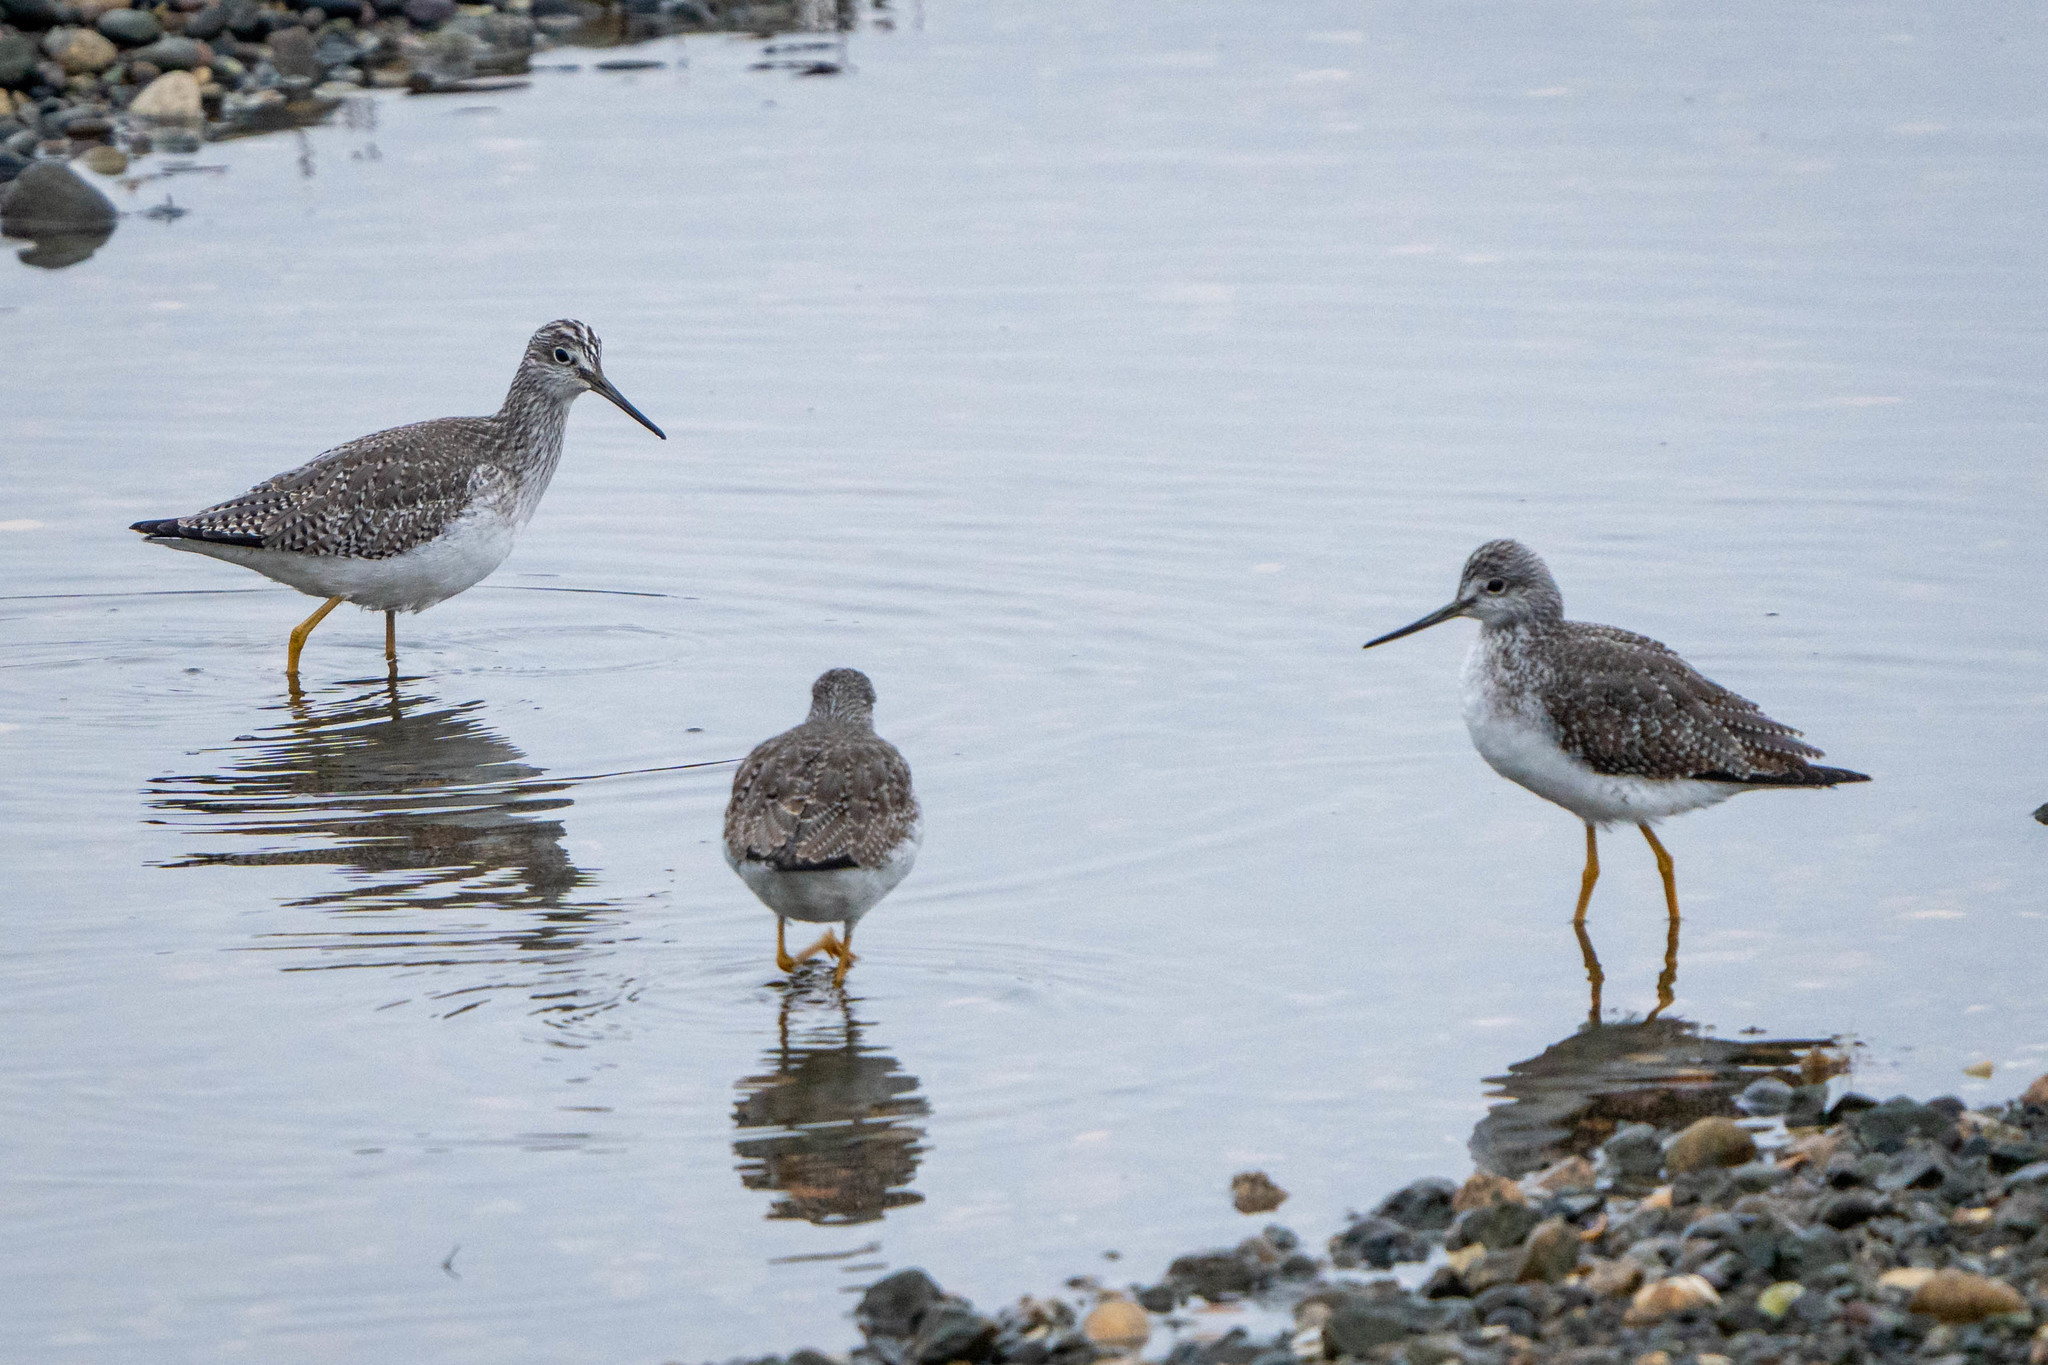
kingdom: Animalia
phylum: Chordata
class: Aves
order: Charadriiformes
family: Scolopacidae
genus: Tringa
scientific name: Tringa melanoleuca
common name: Greater yellowlegs
